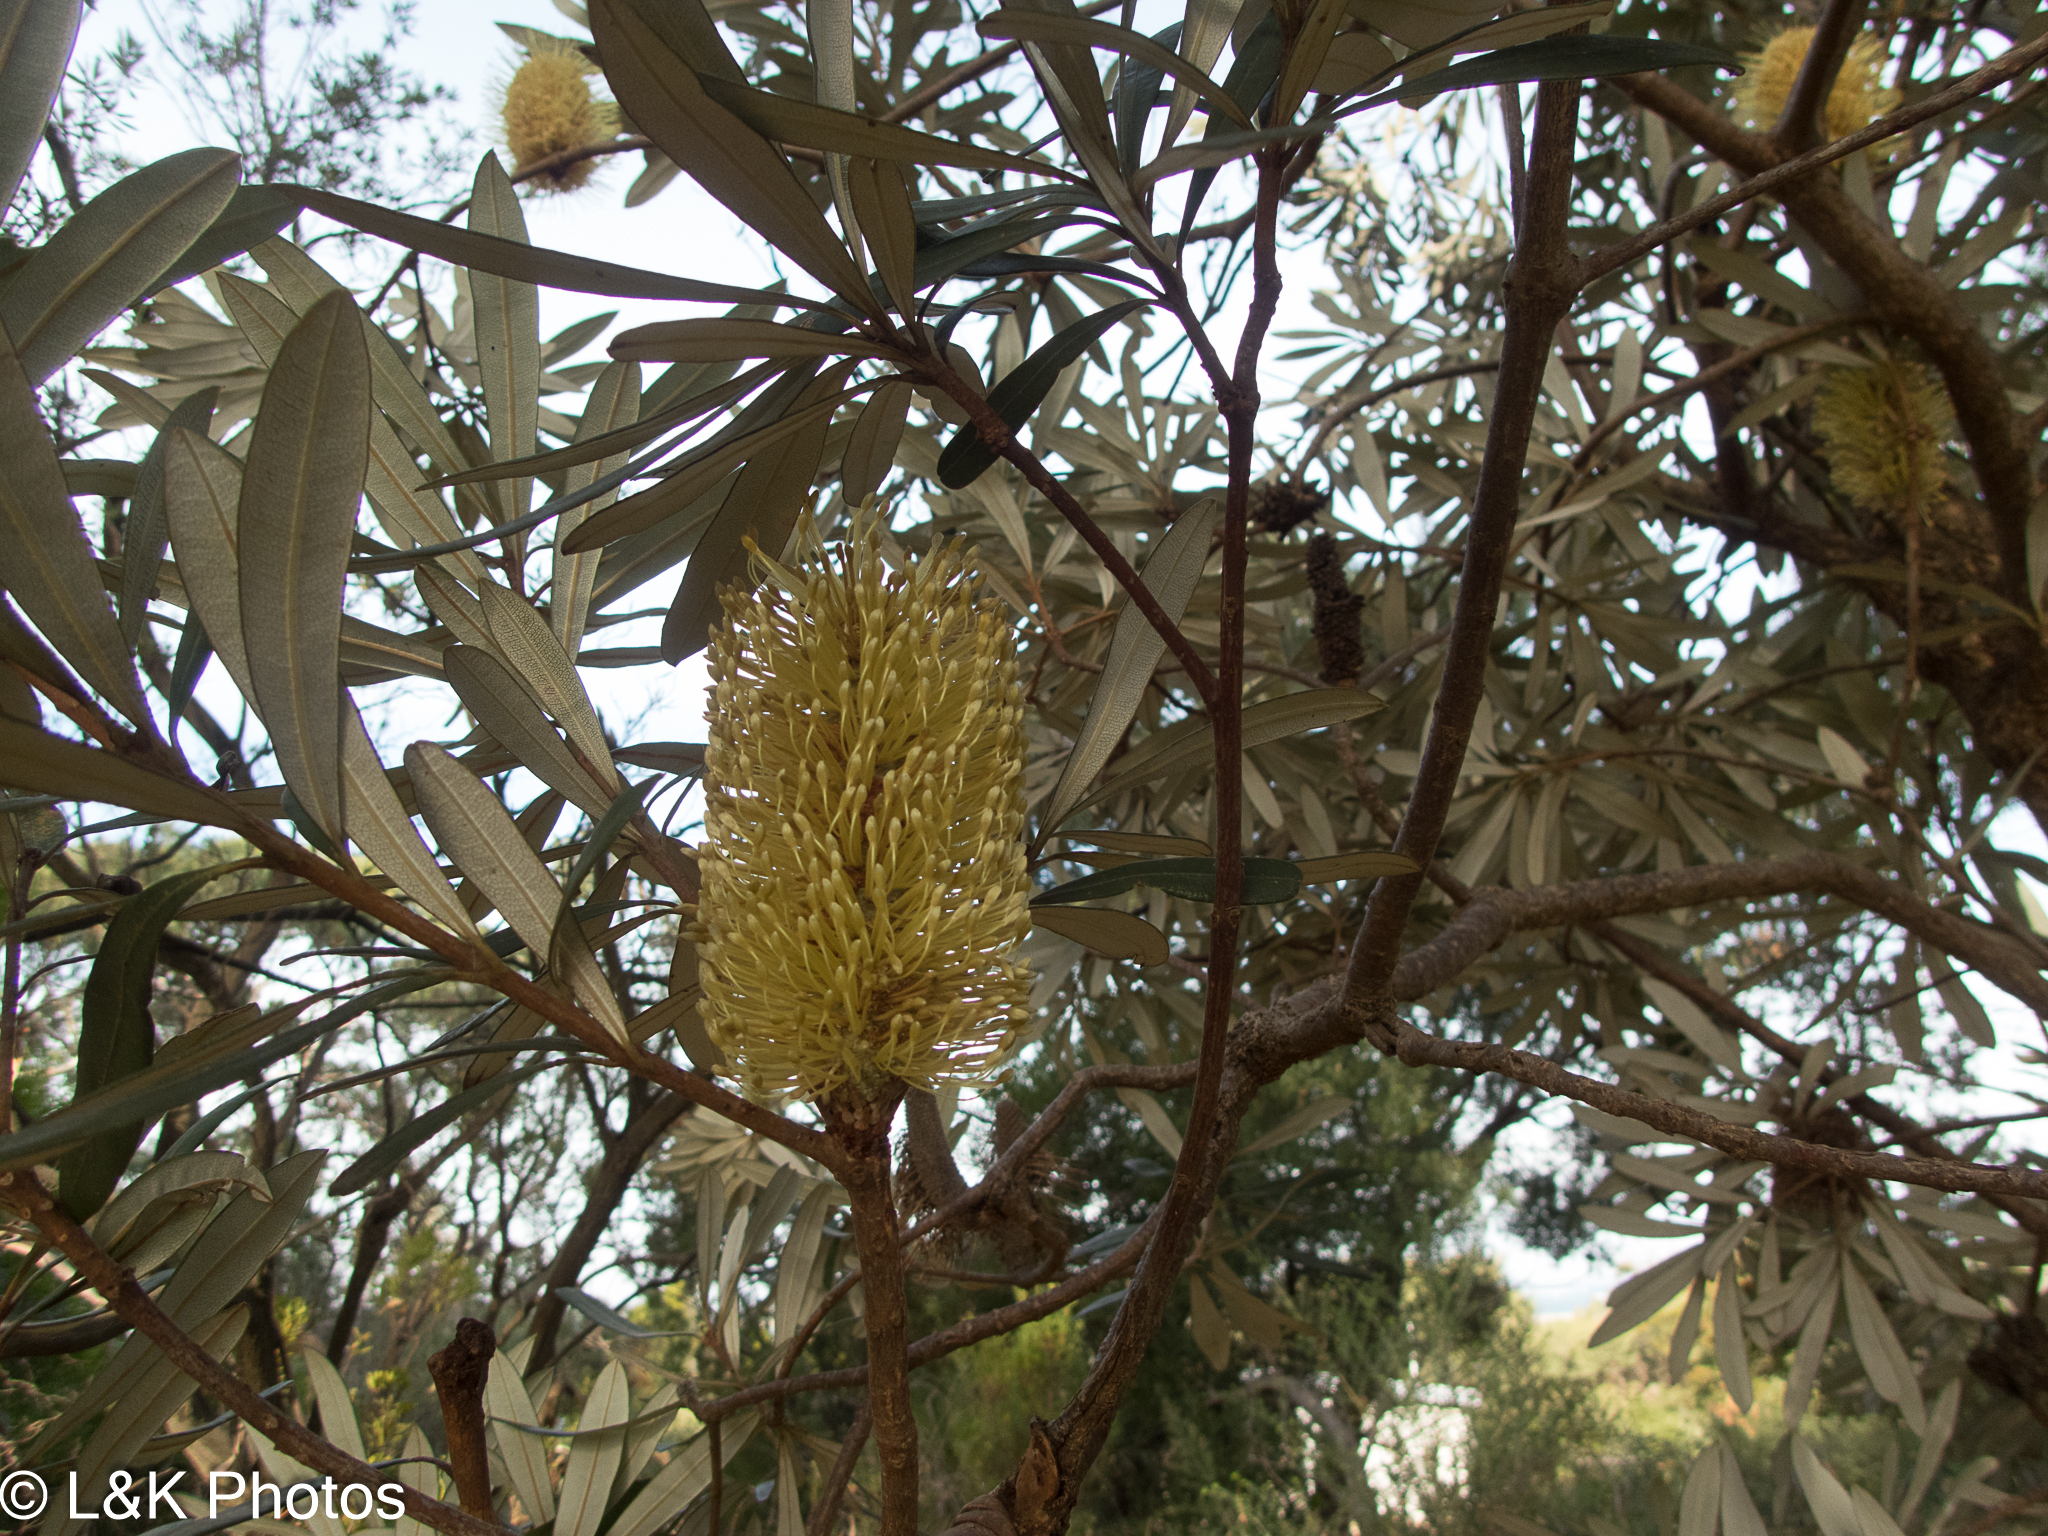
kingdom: Plantae
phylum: Tracheophyta
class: Magnoliopsida
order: Proteales
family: Proteaceae
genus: Banksia
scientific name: Banksia integrifolia
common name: White-honeysuckle
